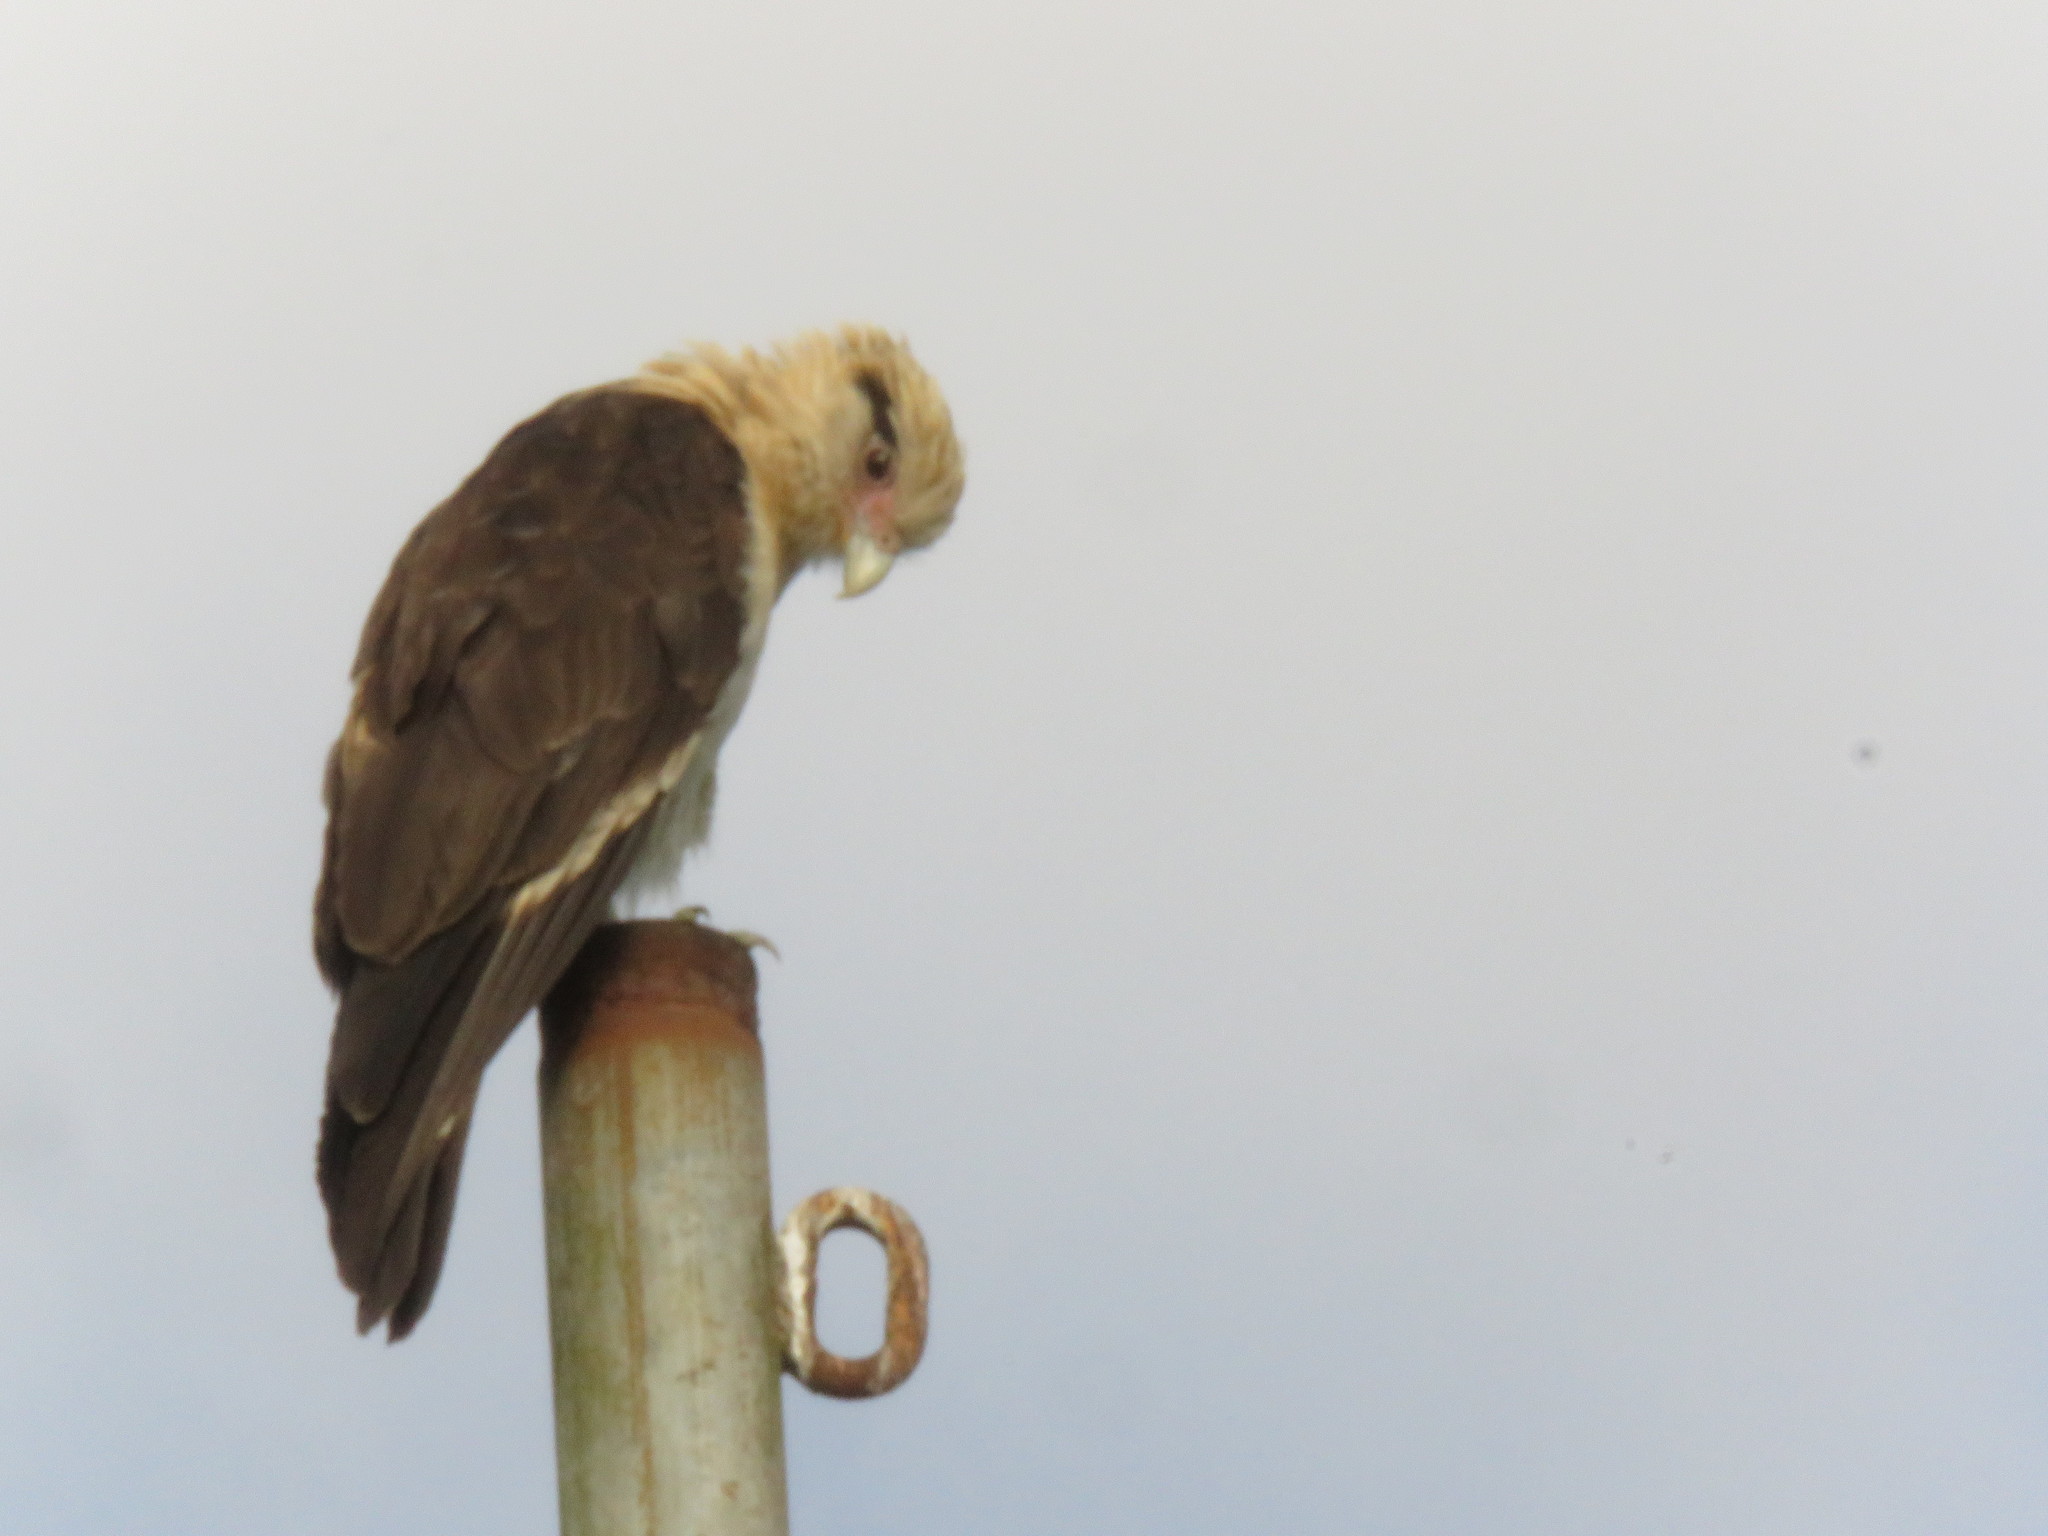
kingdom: Animalia
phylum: Chordata
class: Aves
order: Falconiformes
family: Falconidae
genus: Daptrius
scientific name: Daptrius
